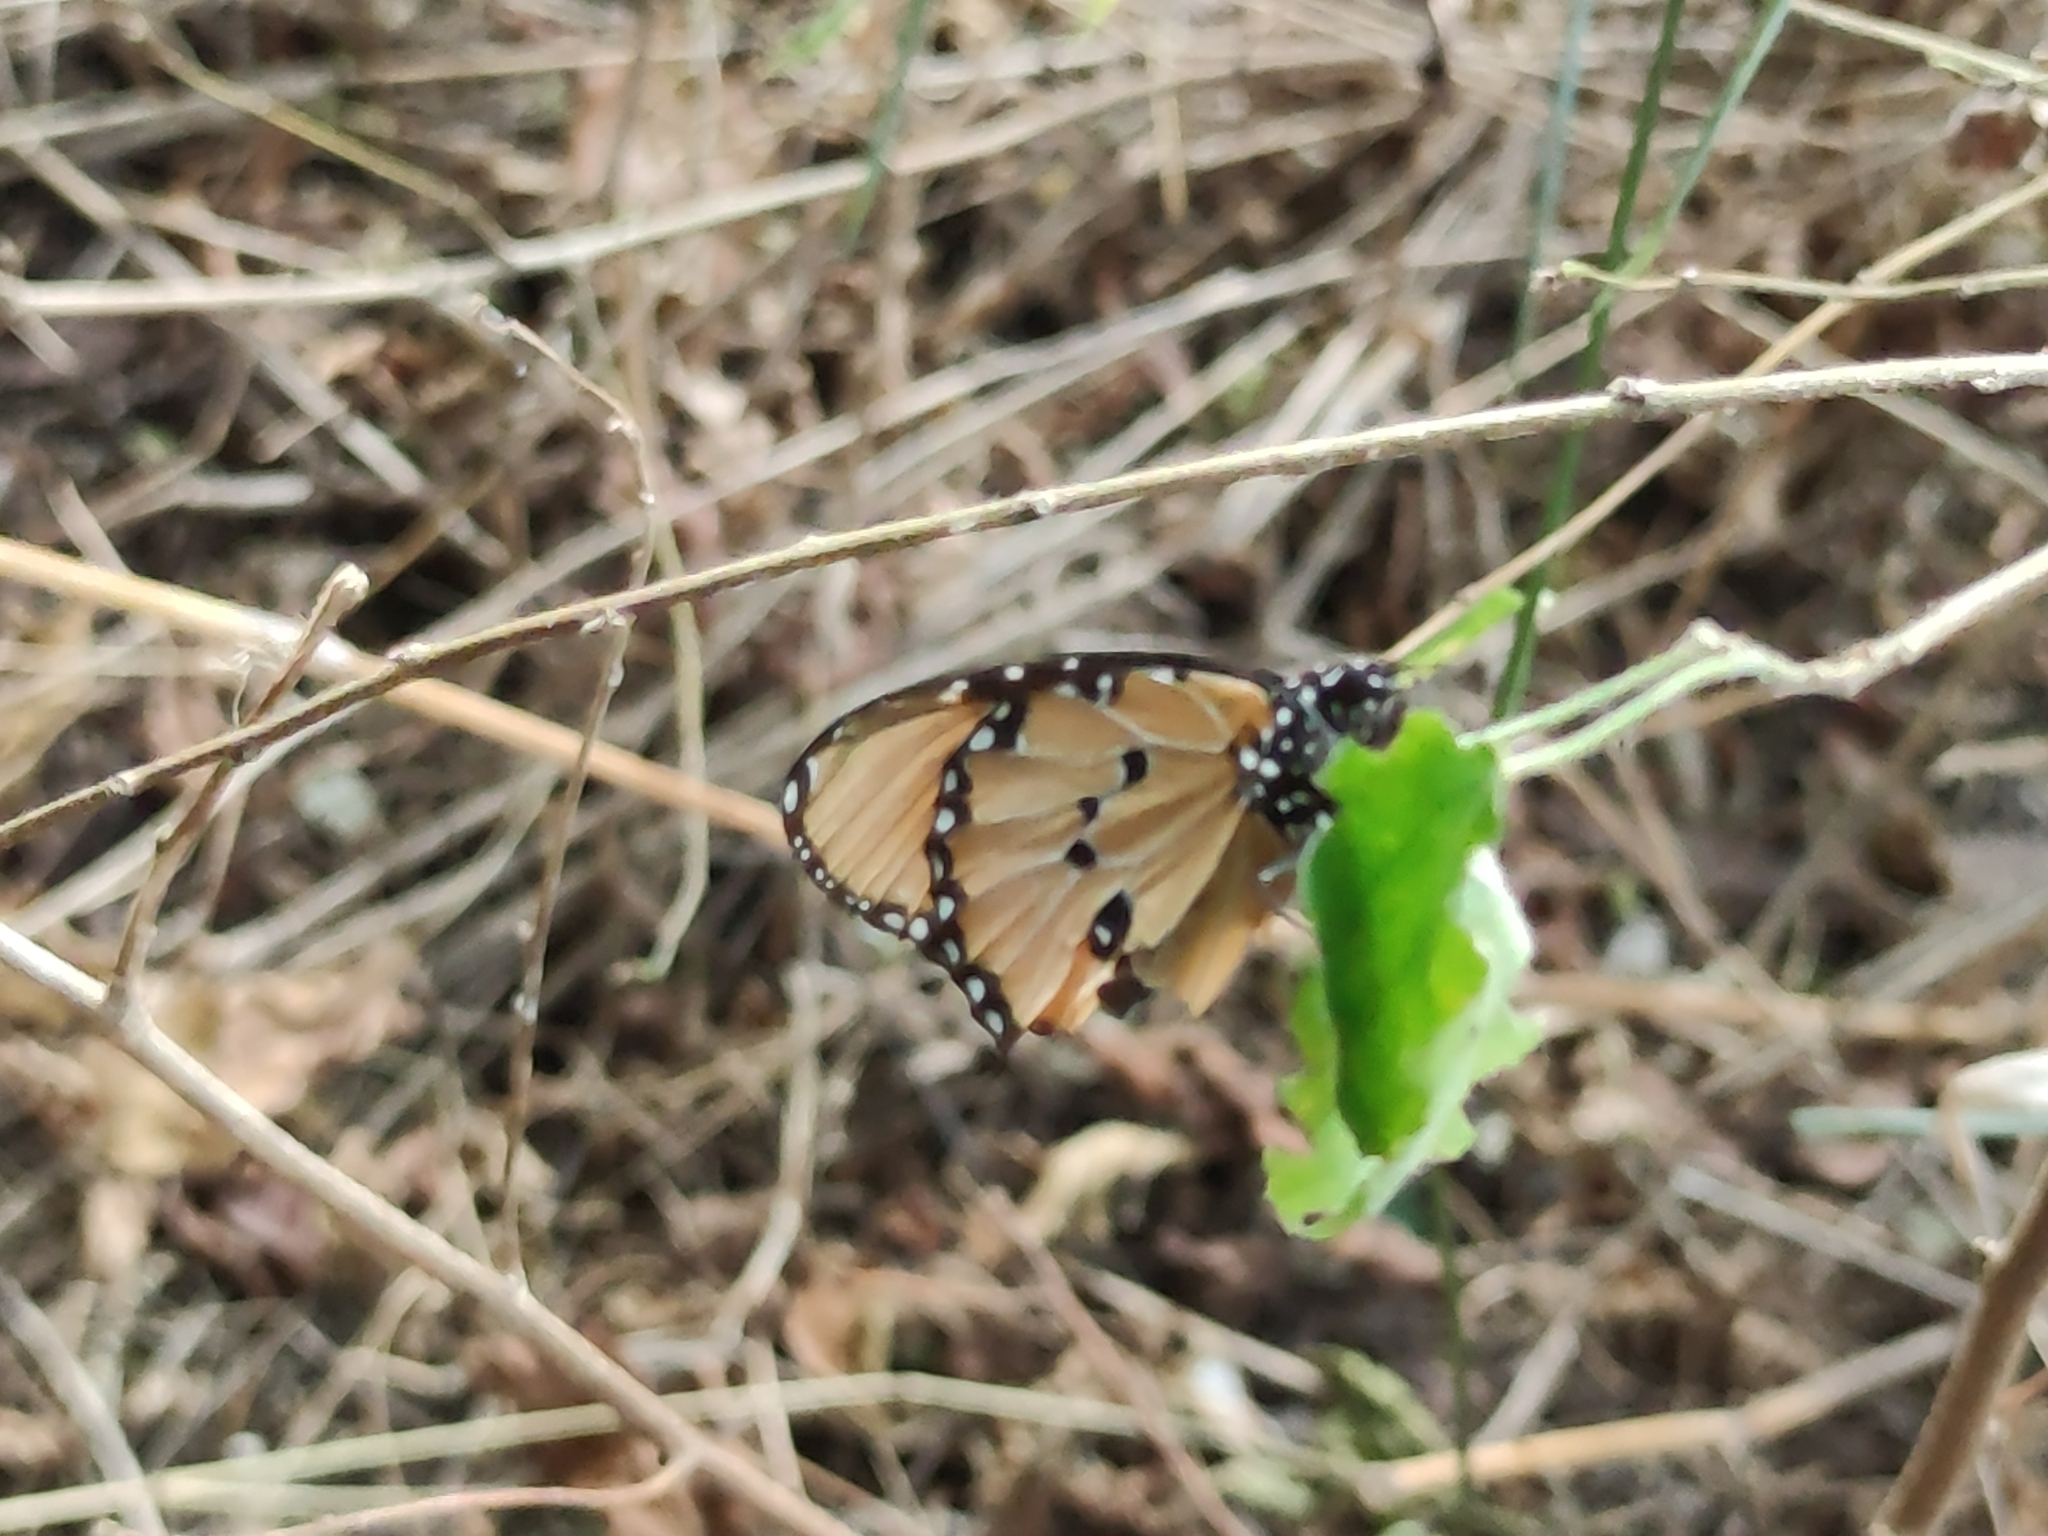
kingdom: Animalia
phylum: Arthropoda
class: Insecta
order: Lepidoptera
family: Nymphalidae
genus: Danaus
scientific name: Danaus chrysippus
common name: Plain tiger
